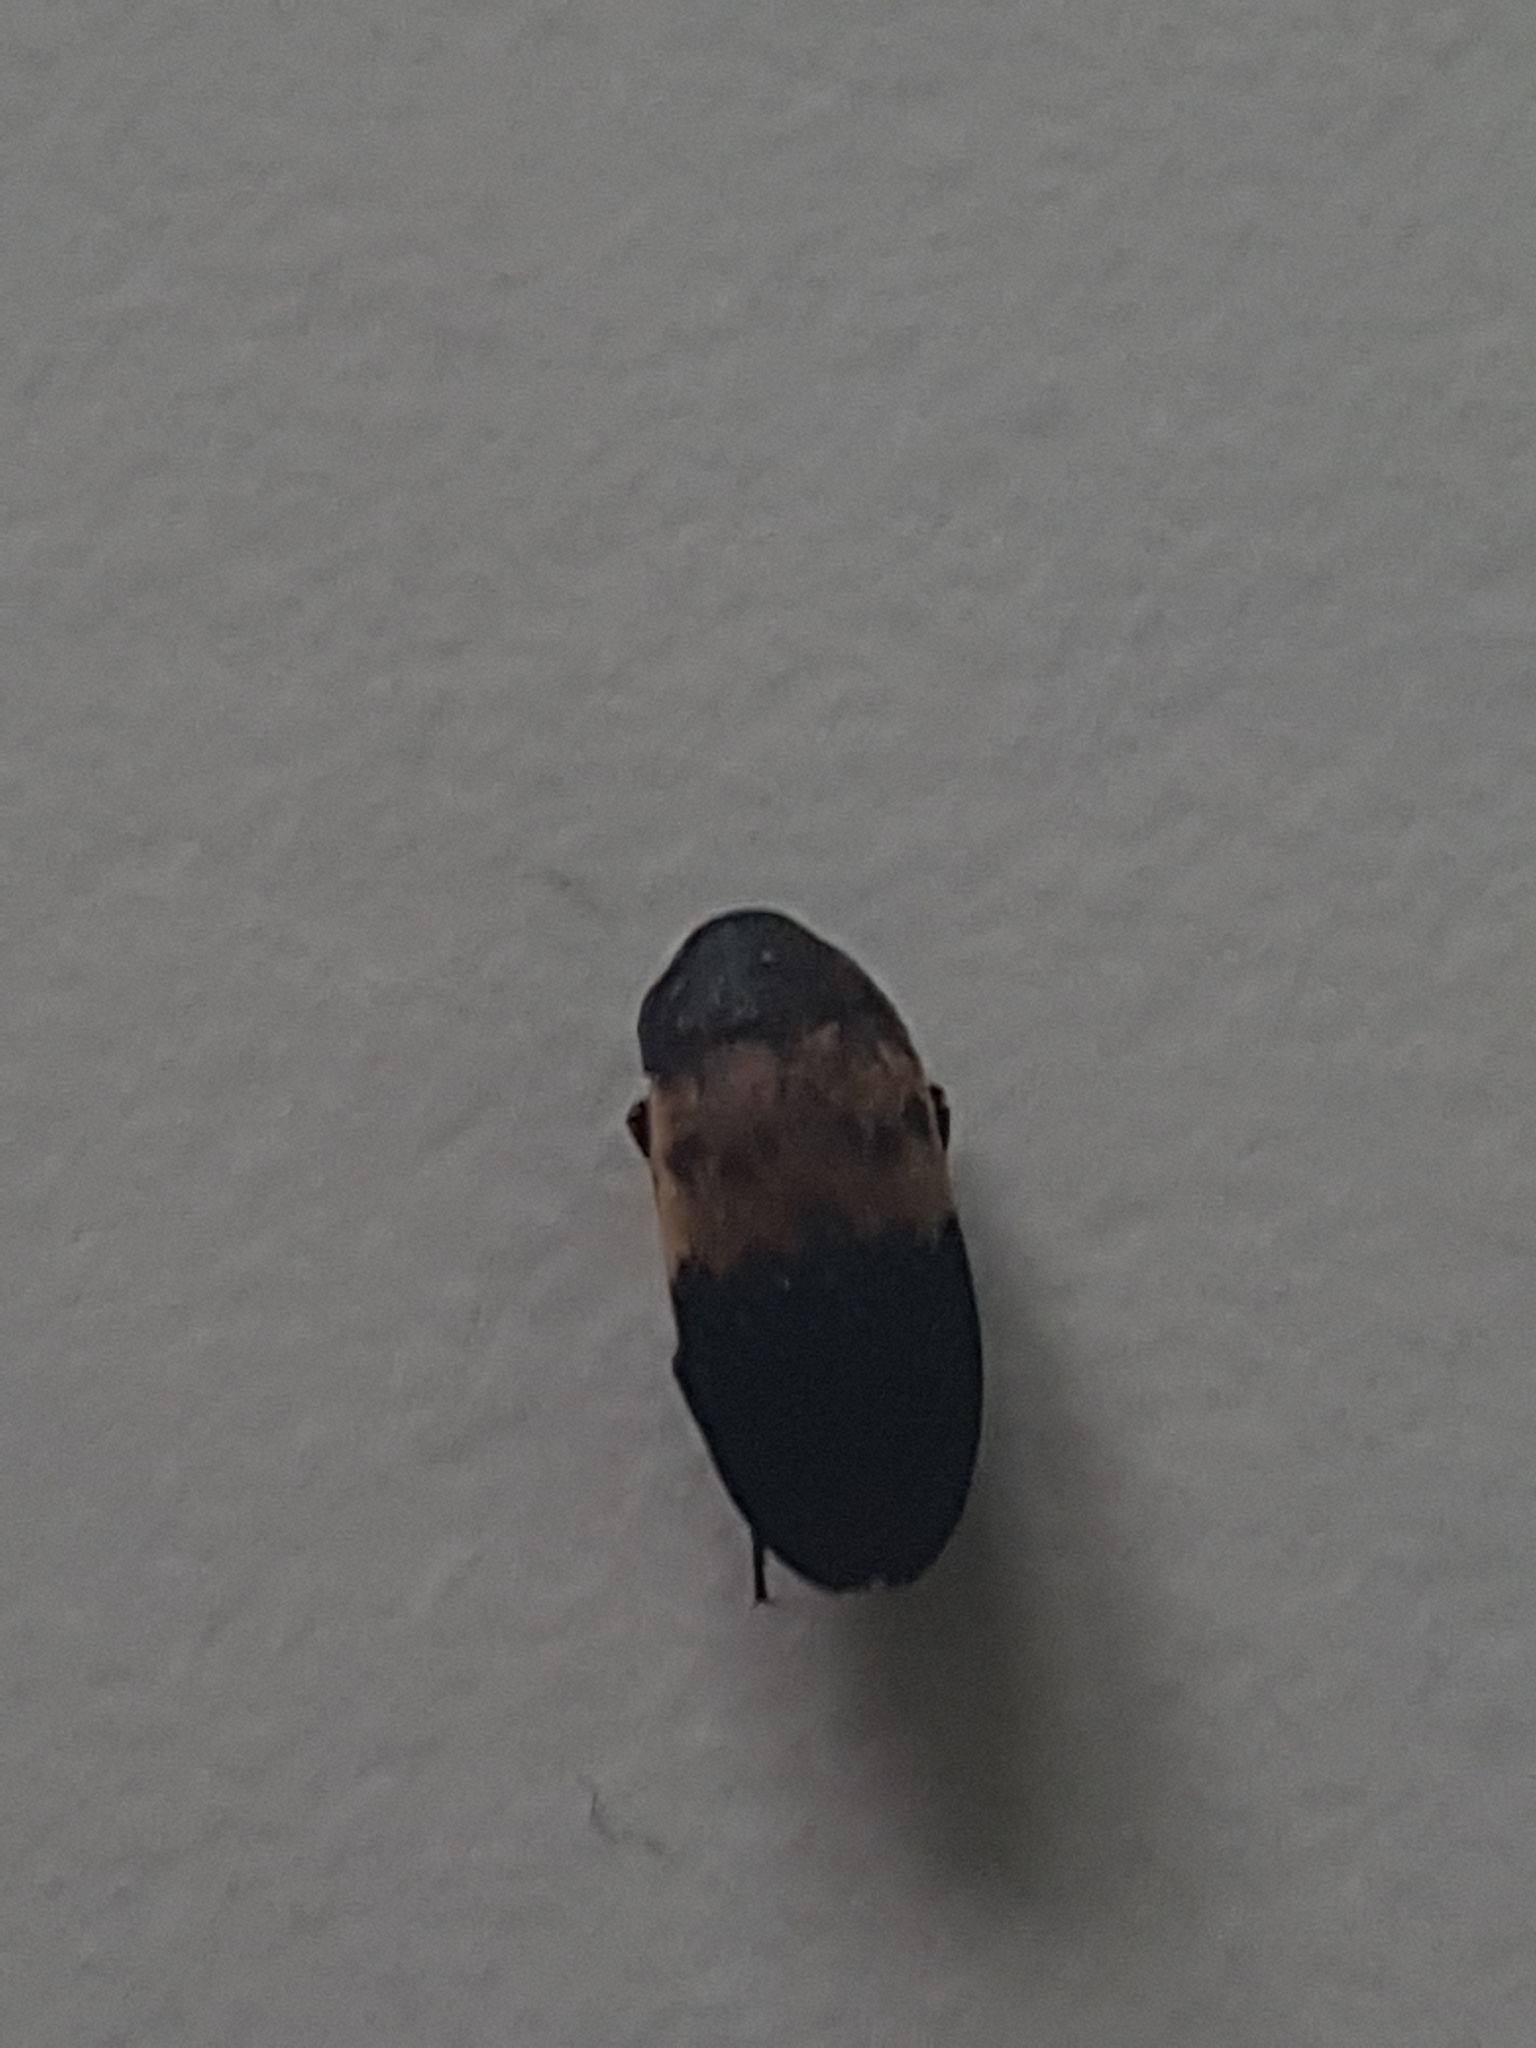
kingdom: Animalia
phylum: Arthropoda
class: Insecta
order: Coleoptera
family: Dermestidae
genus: Dermestes
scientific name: Dermestes lardarius
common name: Larder beetle
